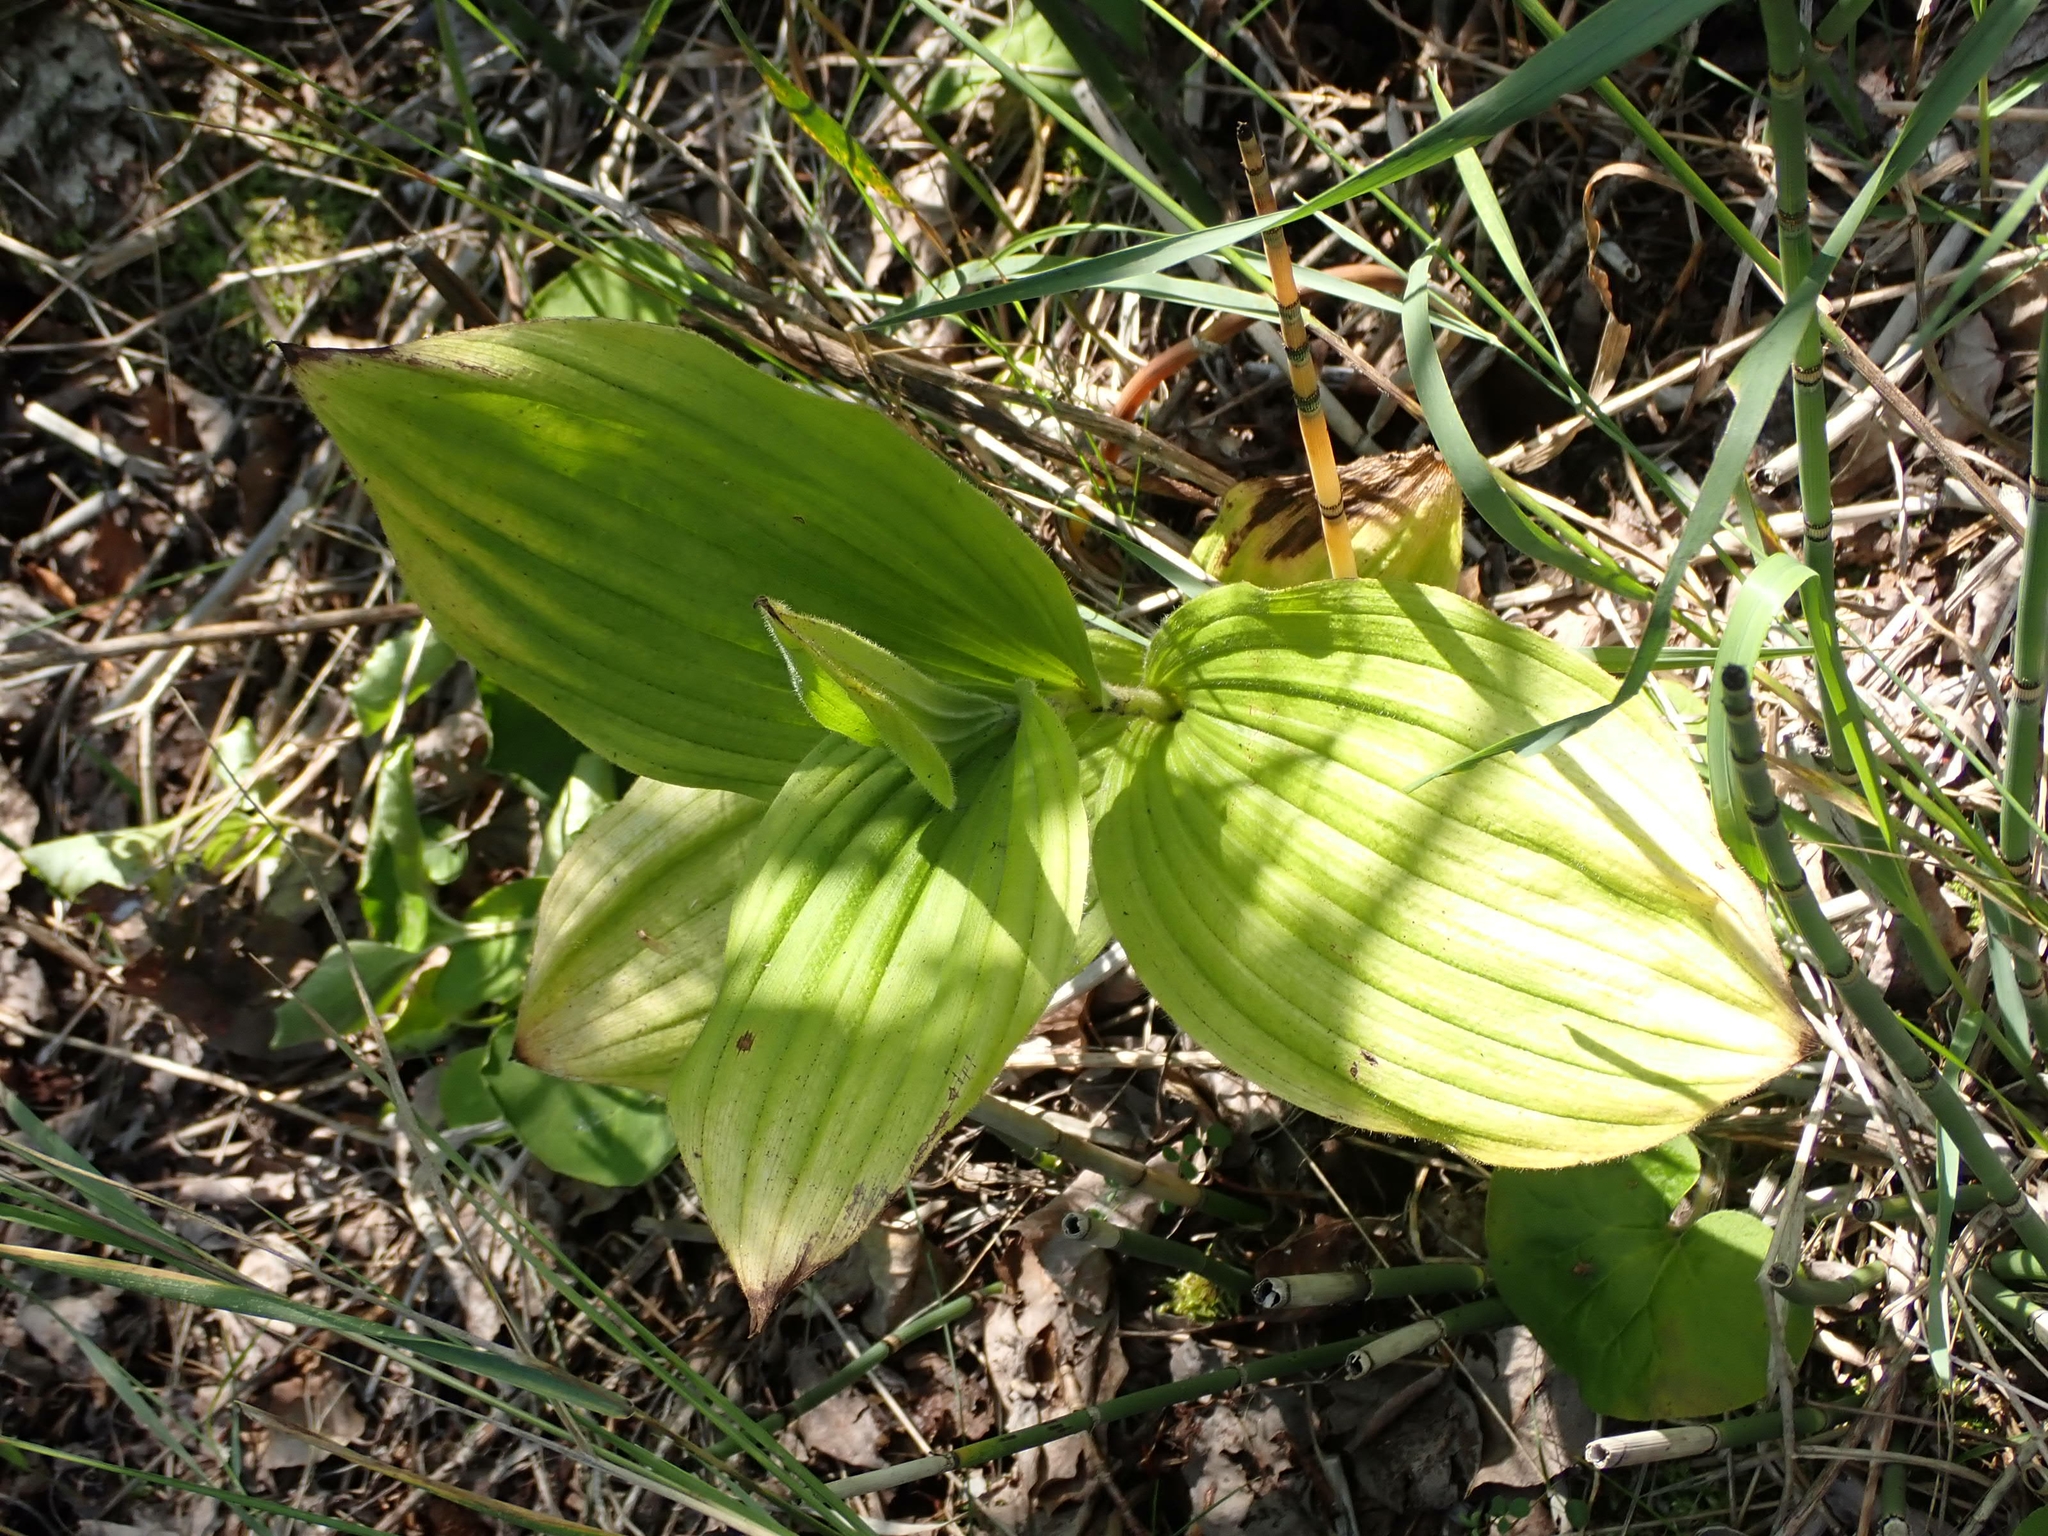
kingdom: Plantae
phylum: Tracheophyta
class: Liliopsida
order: Asparagales
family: Orchidaceae
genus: Cypripedium
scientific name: Cypripedium reginae
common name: Queen lady's-slipper
